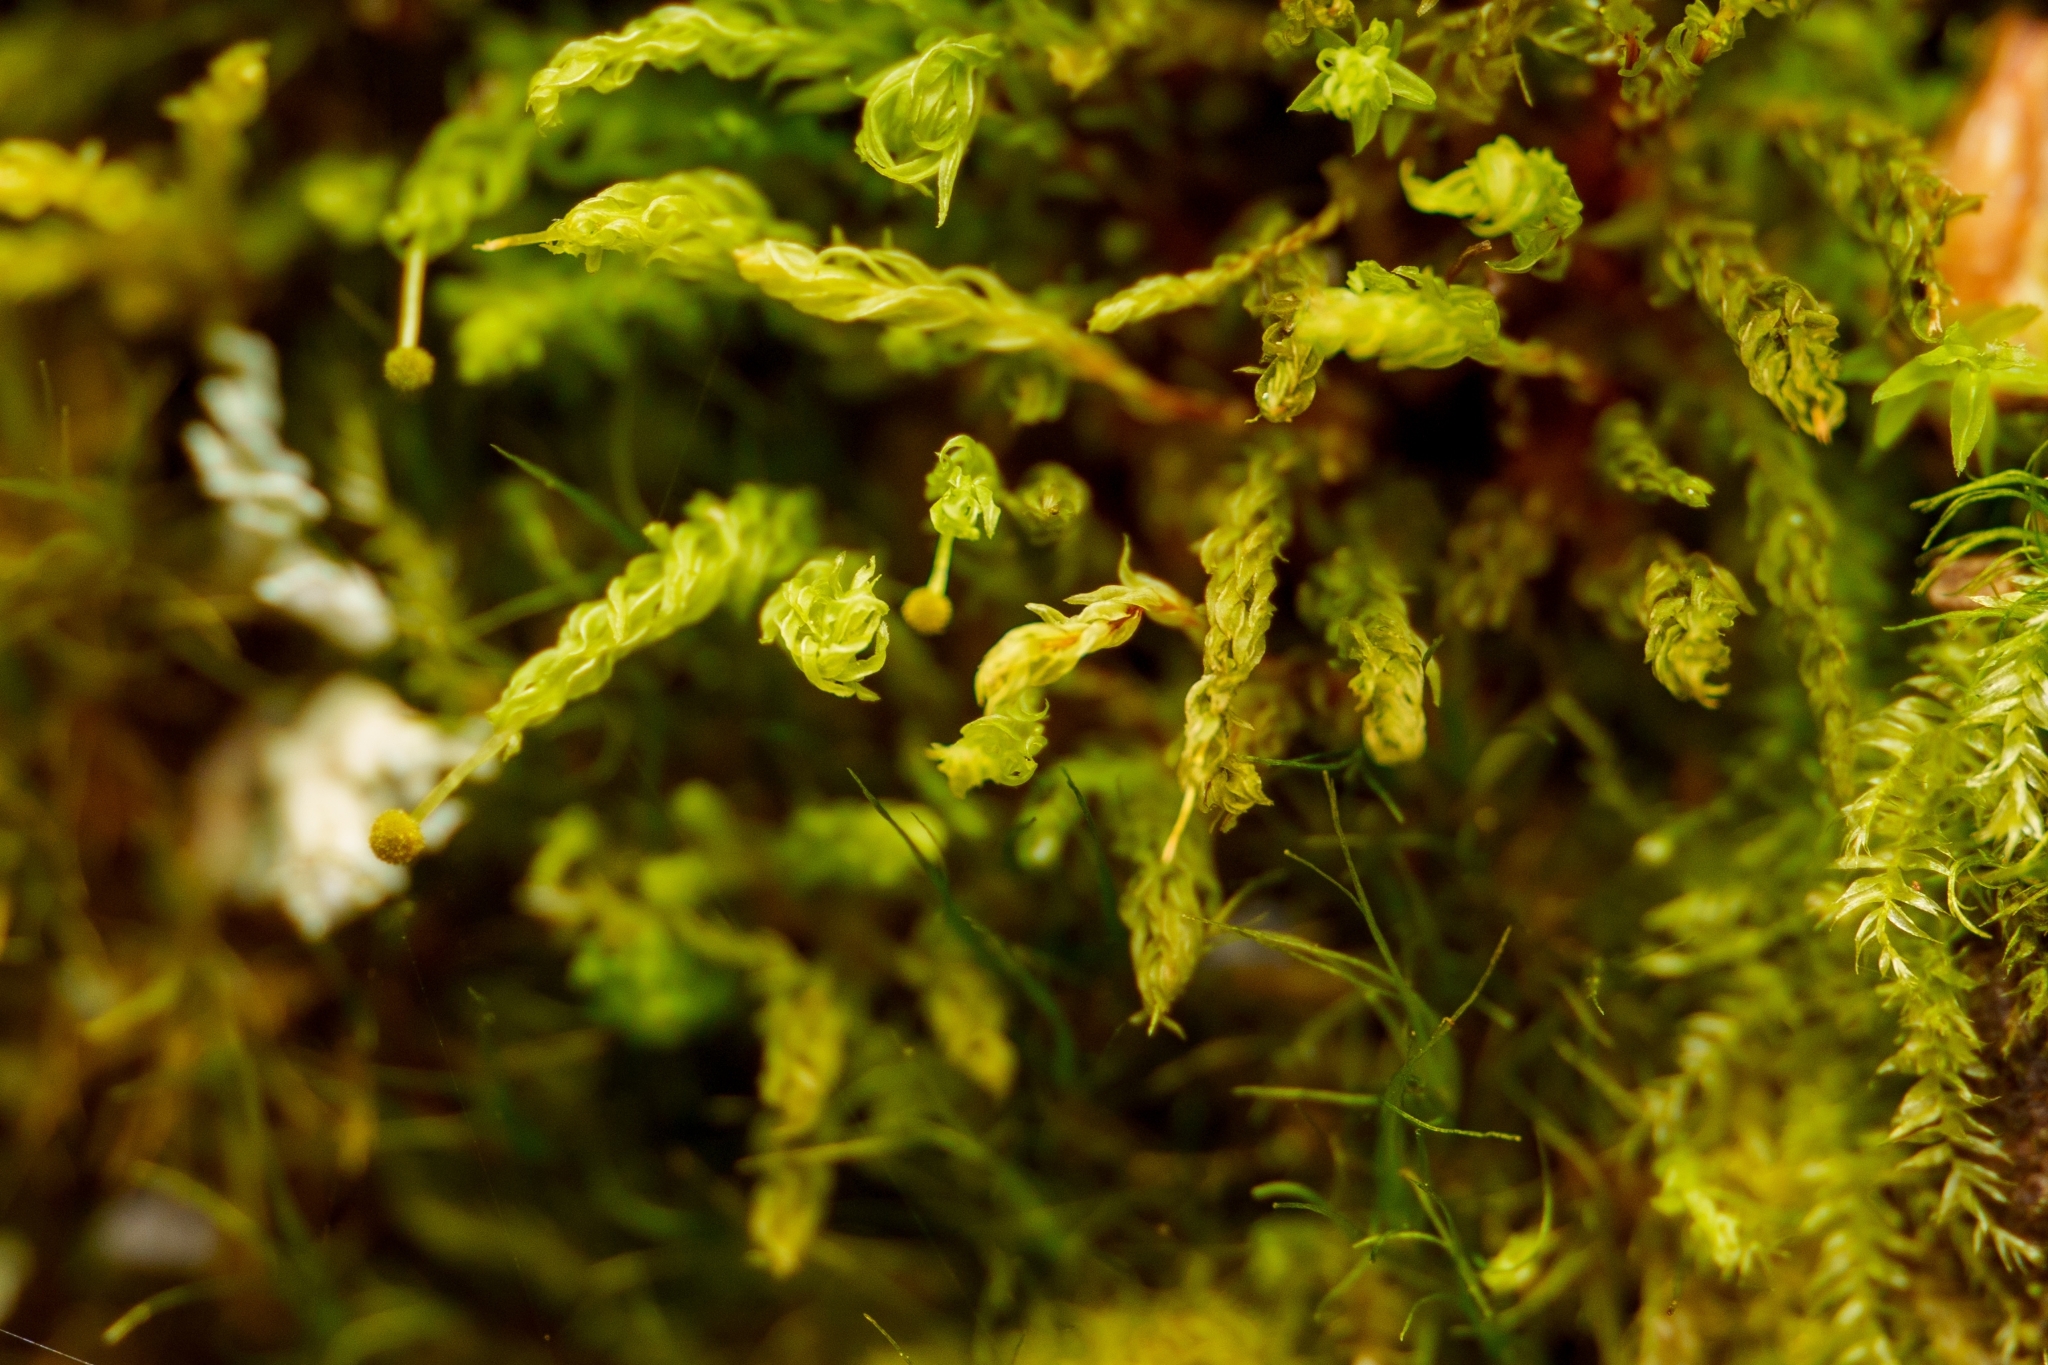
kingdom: Plantae
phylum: Bryophyta
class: Bryopsida
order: Aulacomniales
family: Aulacomniaceae
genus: Aulacomnium
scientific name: Aulacomnium androgynum
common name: Little groove moss
